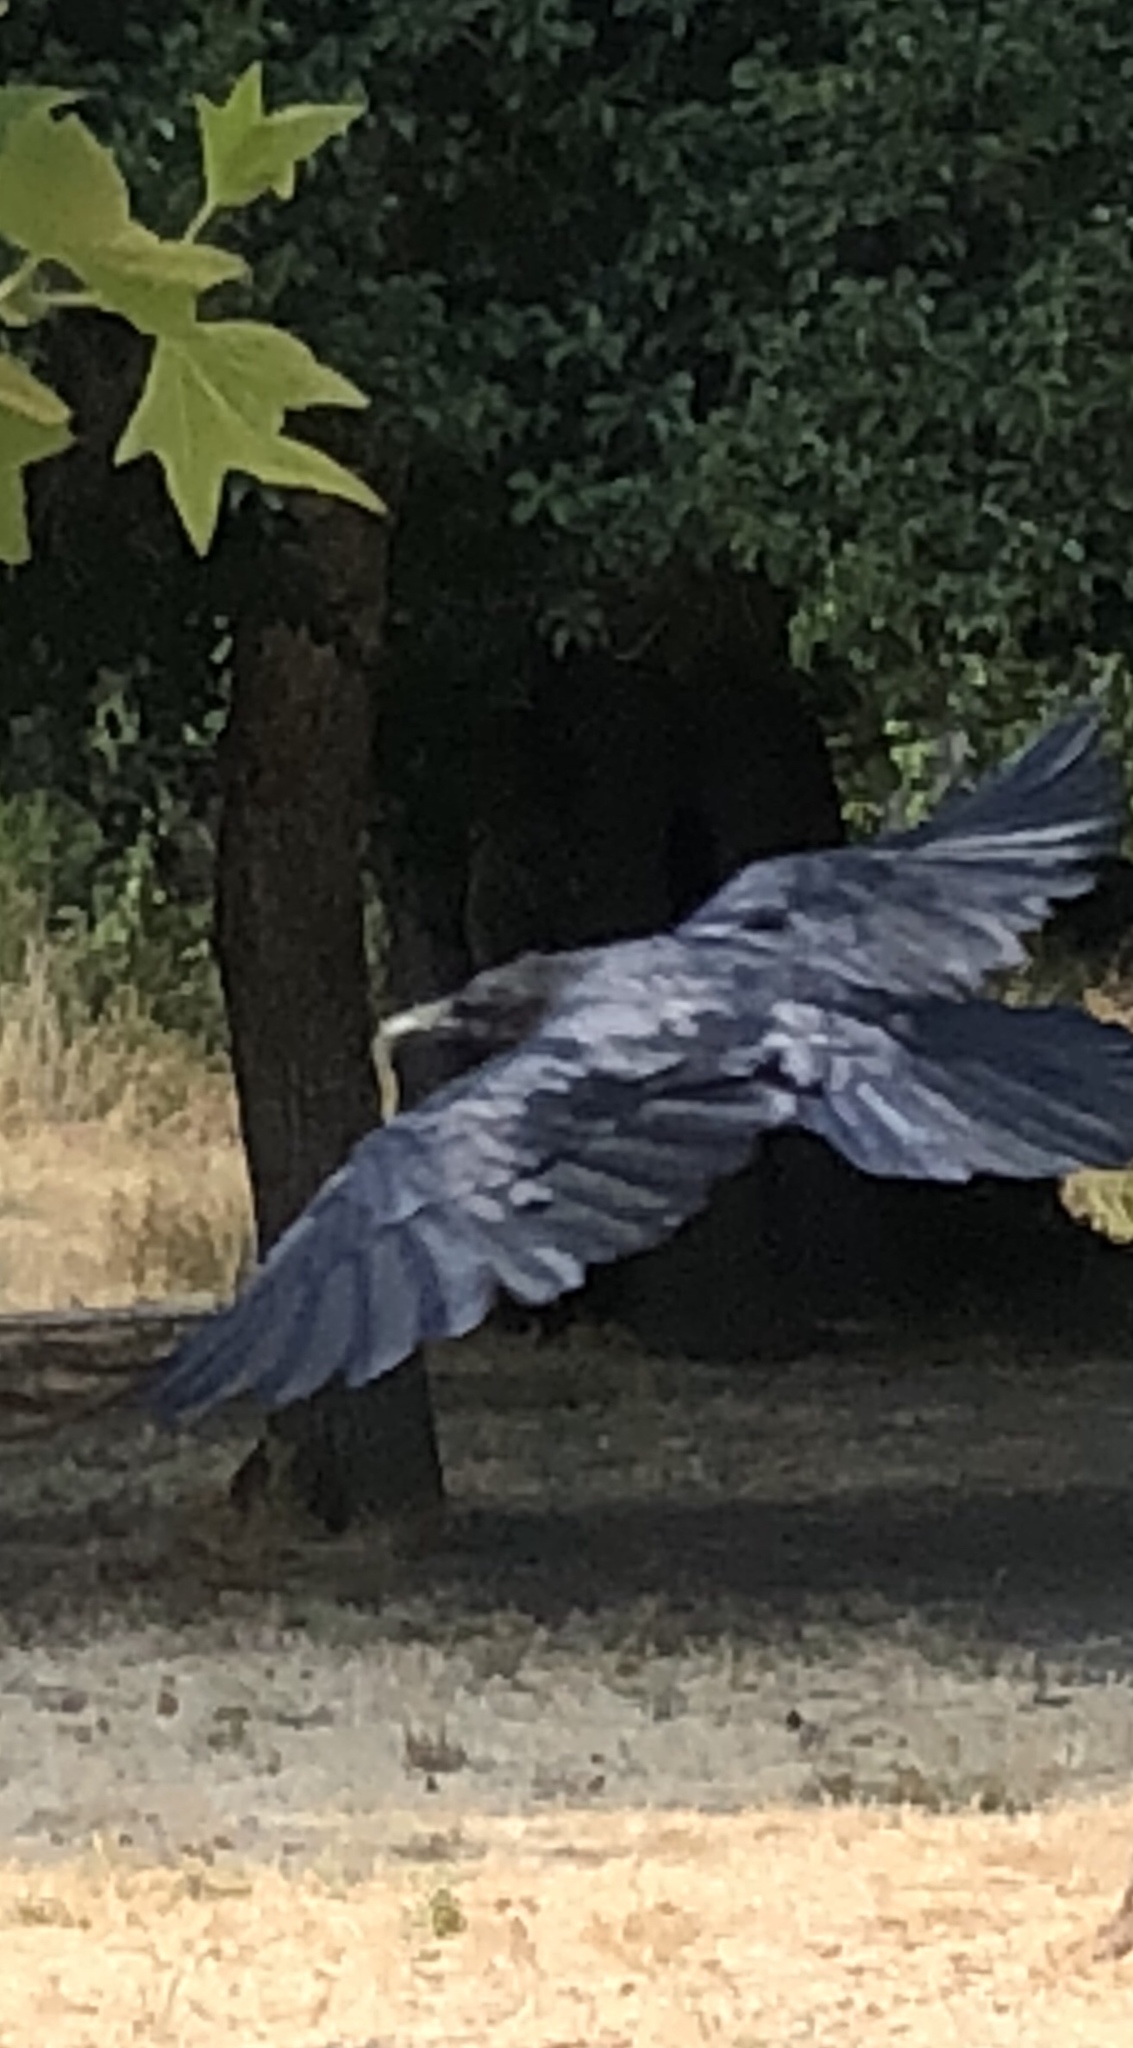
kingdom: Animalia
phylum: Chordata
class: Aves
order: Passeriformes
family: Corvidae
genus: Corvus
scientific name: Corvus corax
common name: Common raven
